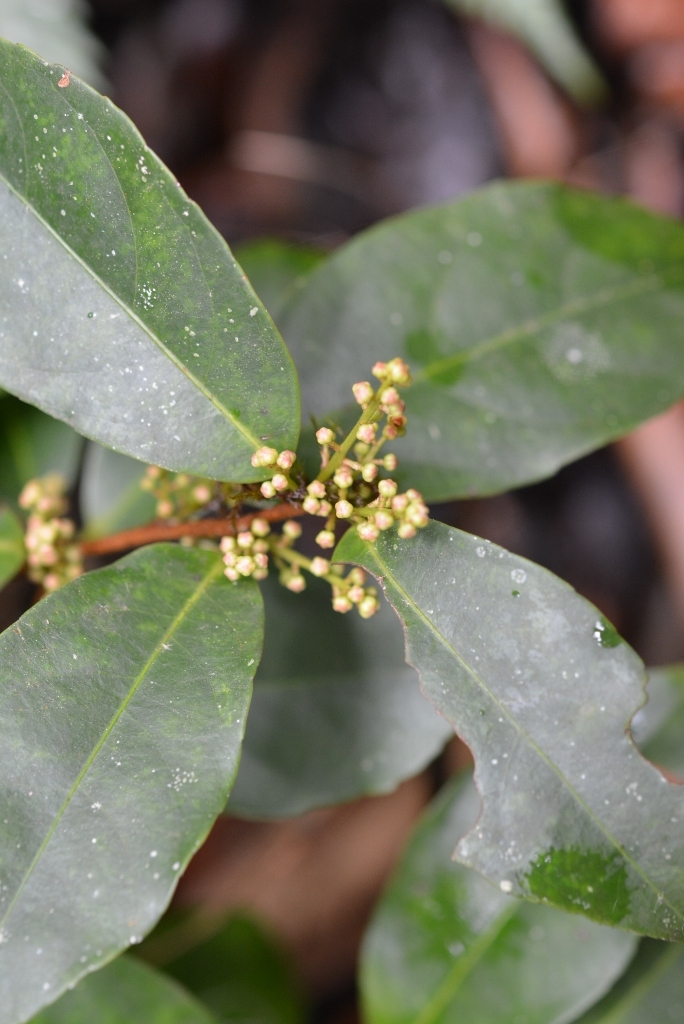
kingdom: Plantae
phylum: Tracheophyta
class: Magnoliopsida
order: Celastrales
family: Celastraceae
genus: Celastrus
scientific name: Celastrus vulcanicola
